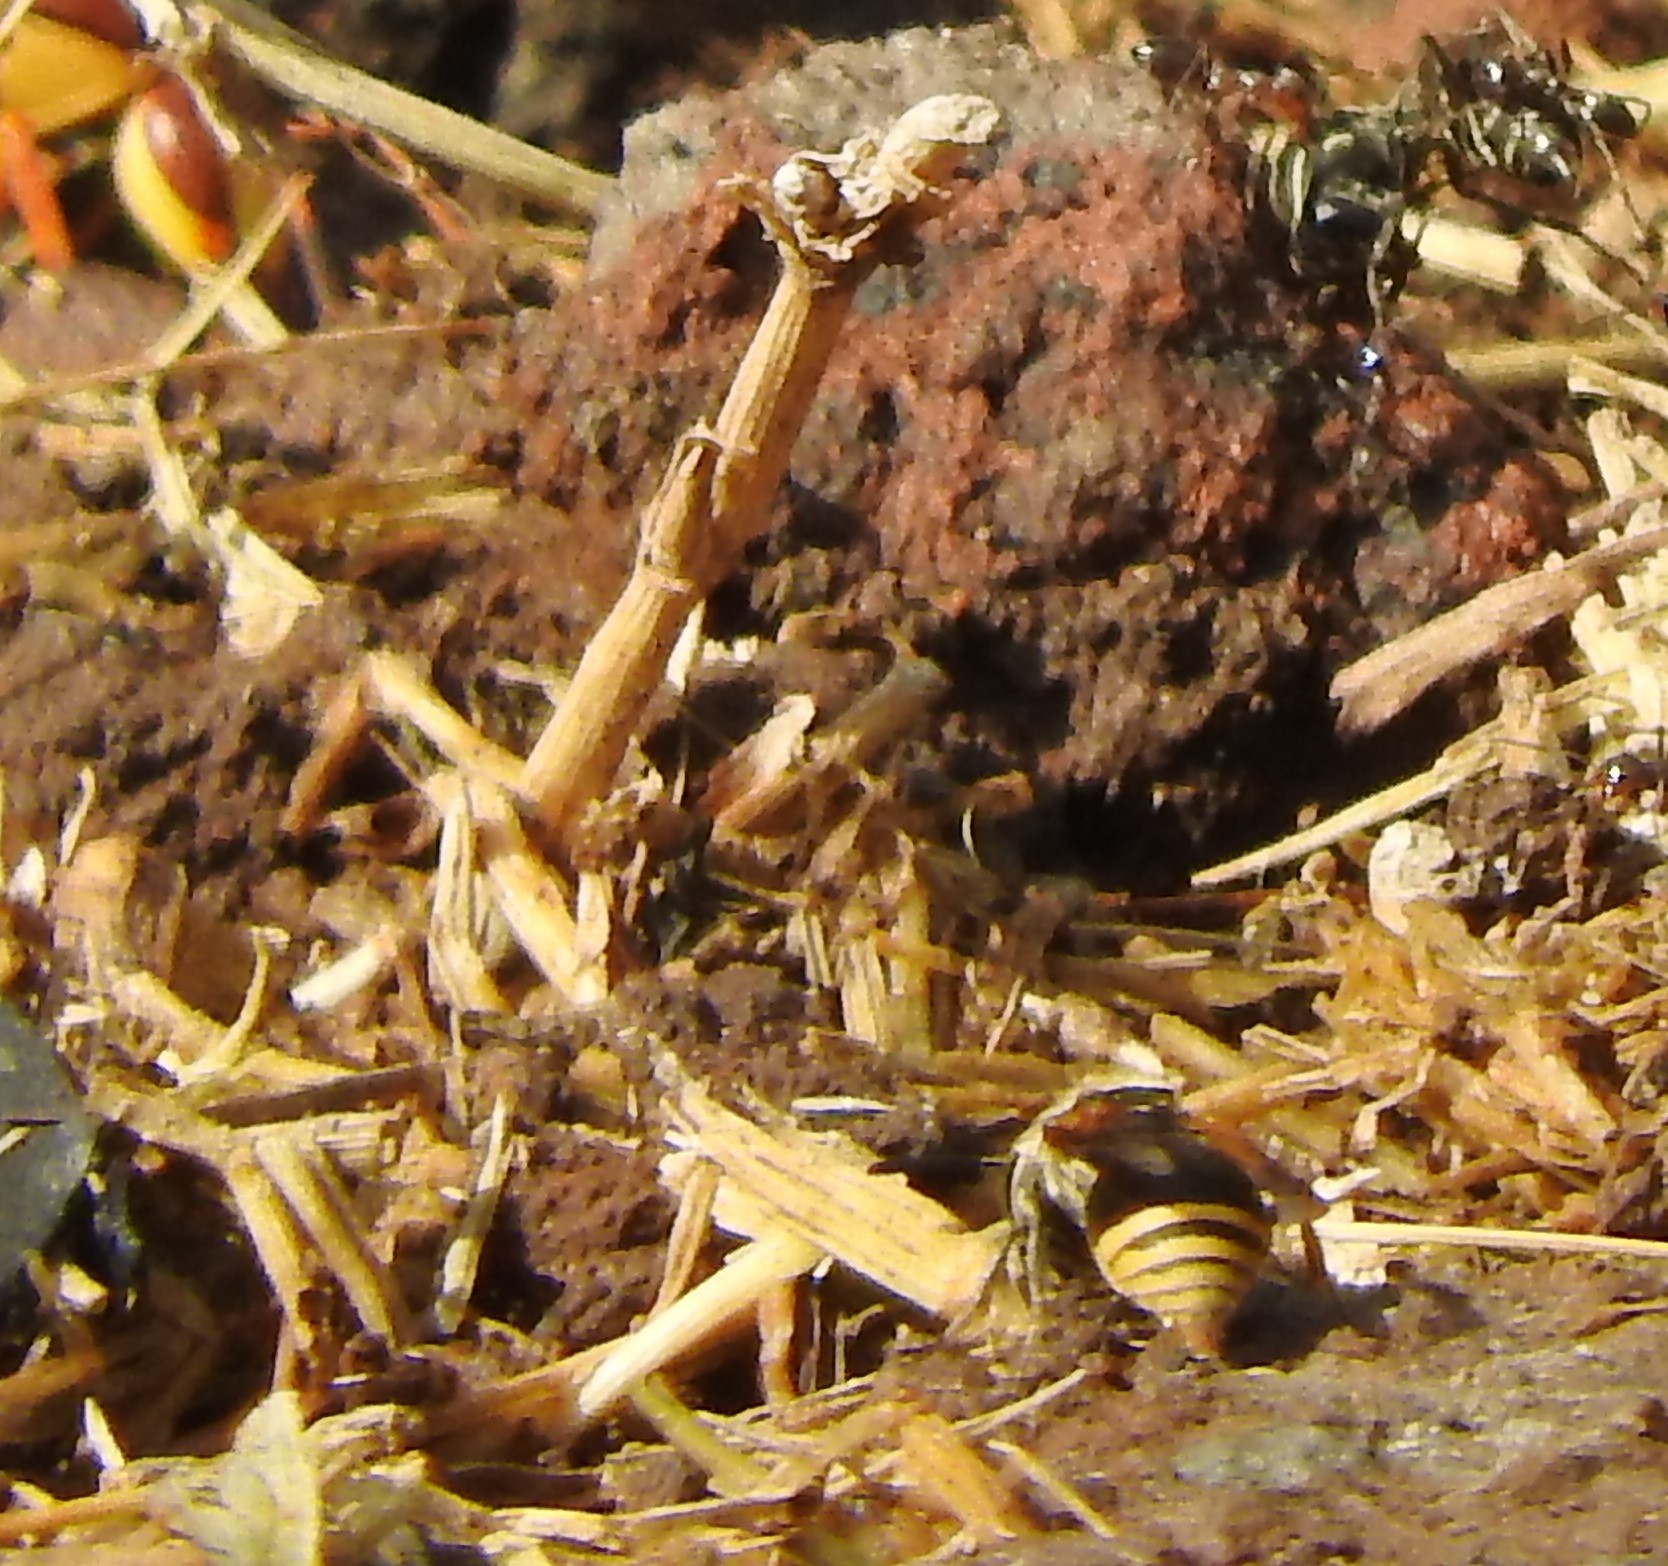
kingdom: Animalia
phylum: Arthropoda
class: Insecta
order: Hymenoptera
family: Vespidae
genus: Brachygastra
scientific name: Brachygastra mellifica
